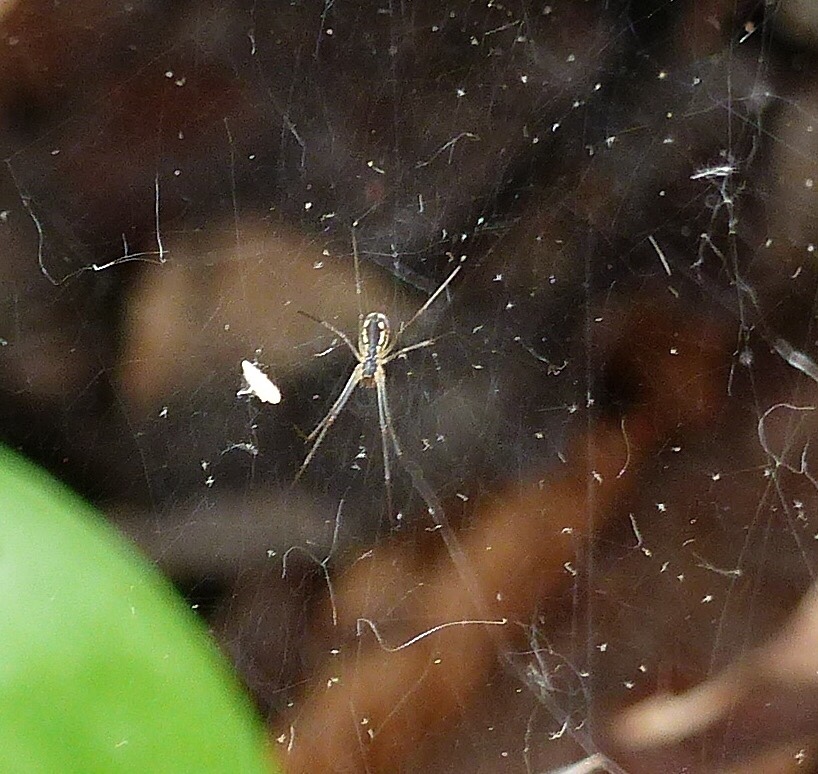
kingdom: Animalia
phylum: Arthropoda
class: Arachnida
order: Araneae
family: Linyphiidae
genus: Neriene
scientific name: Neriene radiata
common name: Filmy dome spider
